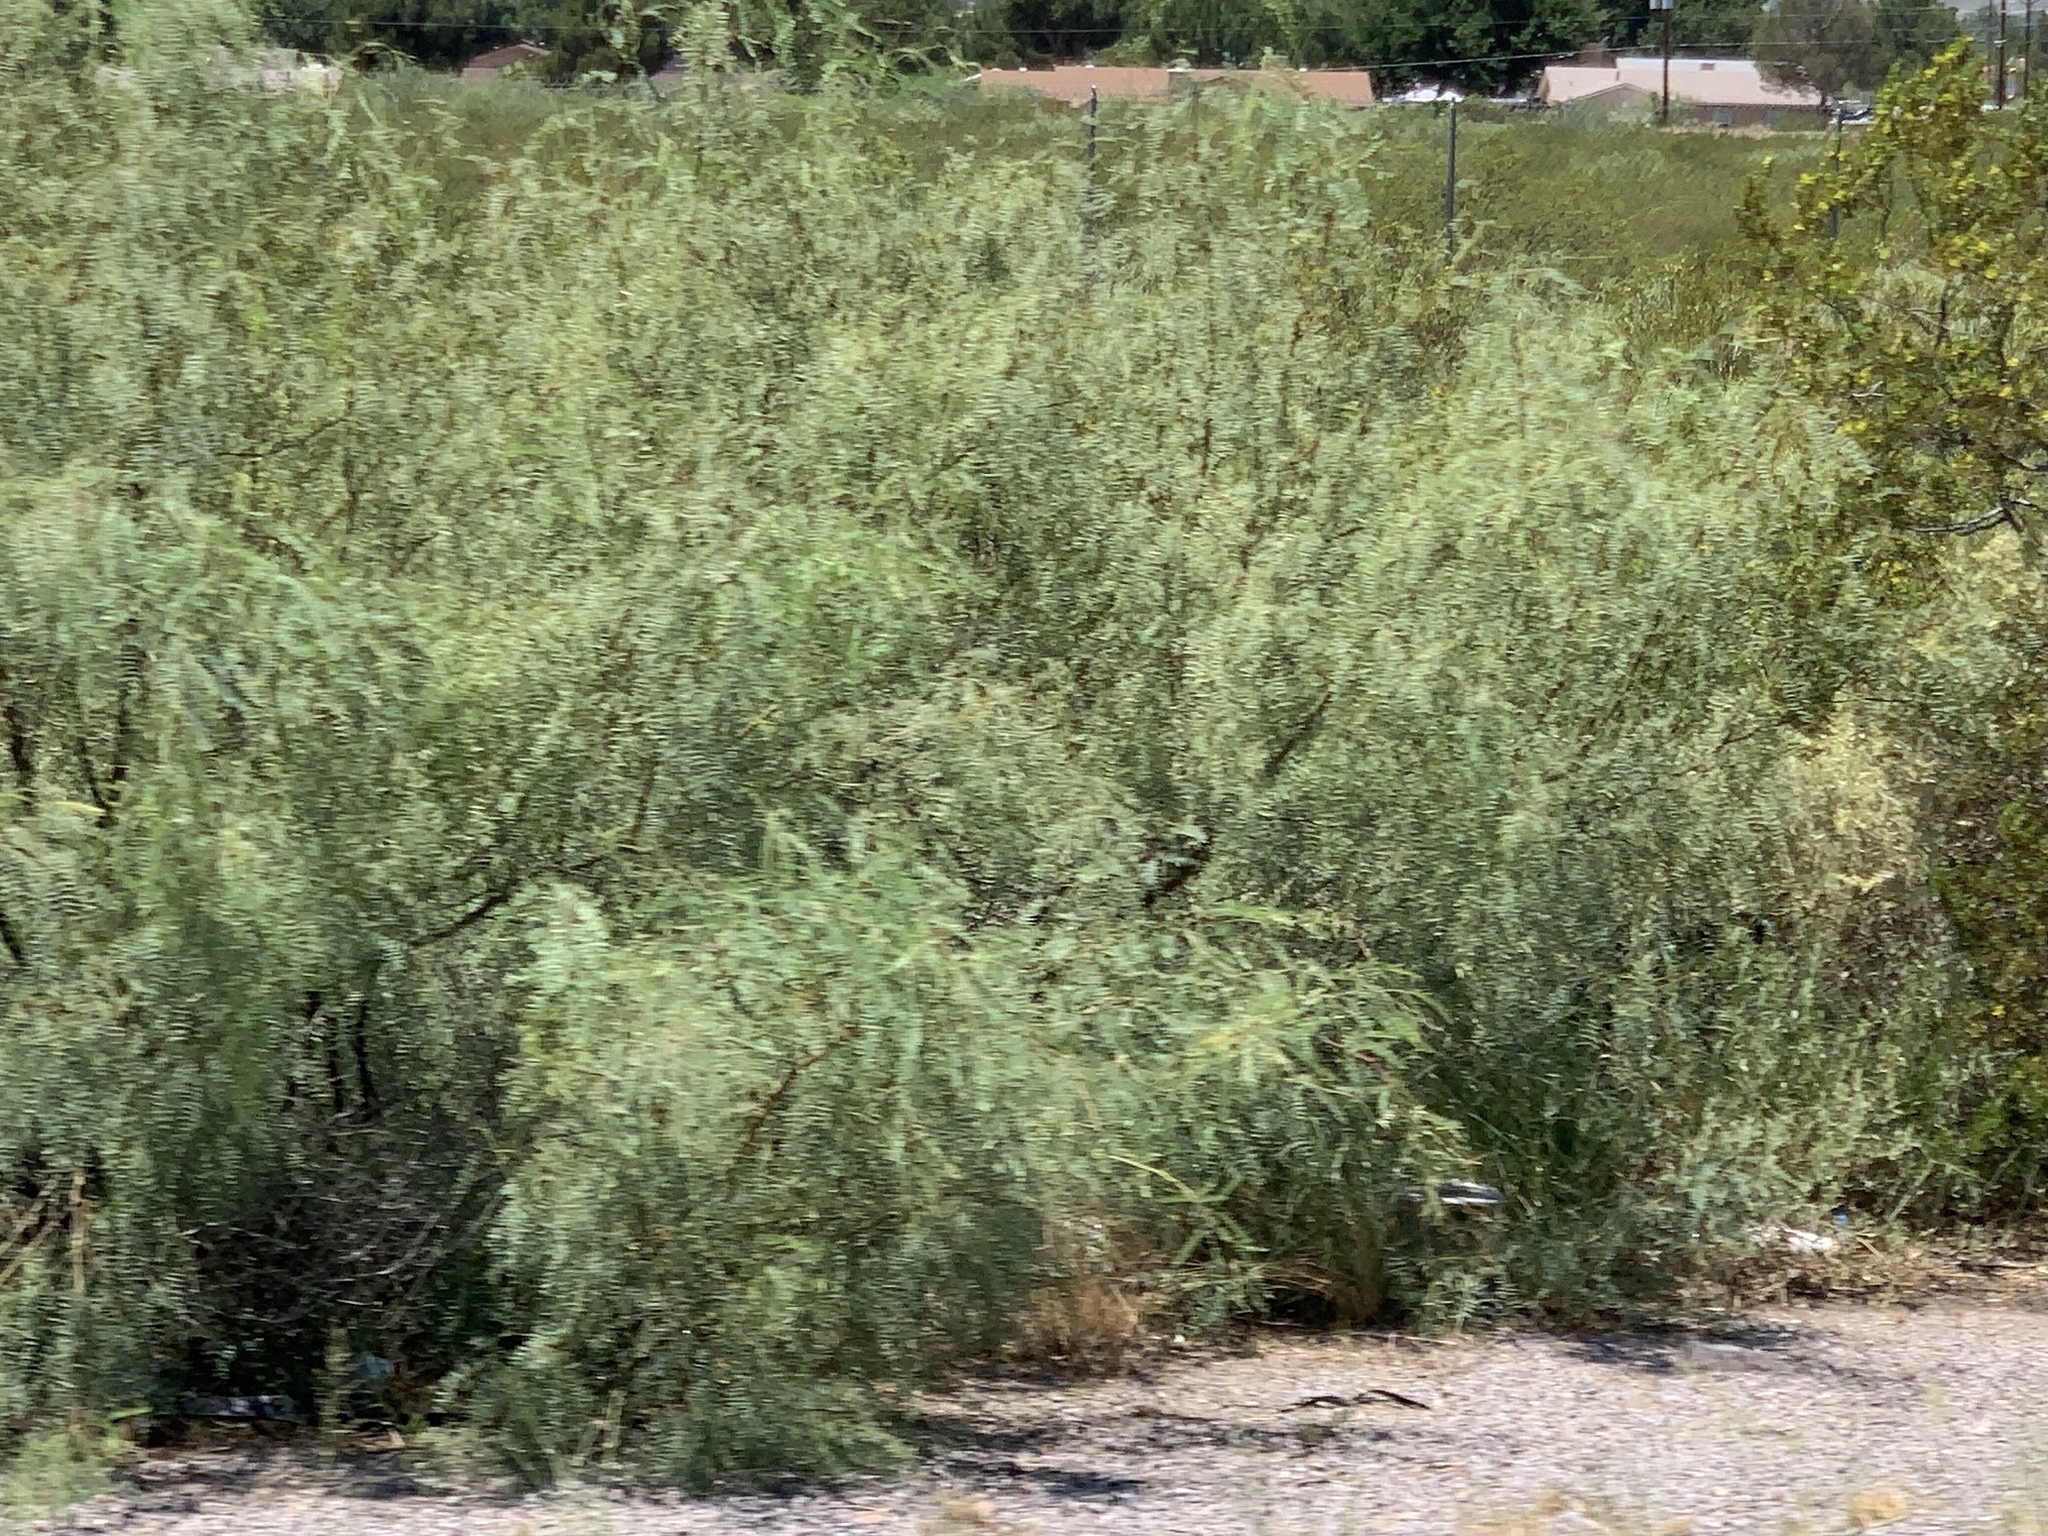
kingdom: Plantae
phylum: Tracheophyta
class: Magnoliopsida
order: Fabales
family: Fabaceae
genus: Prosopis
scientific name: Prosopis glandulosa
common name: Honey mesquite
